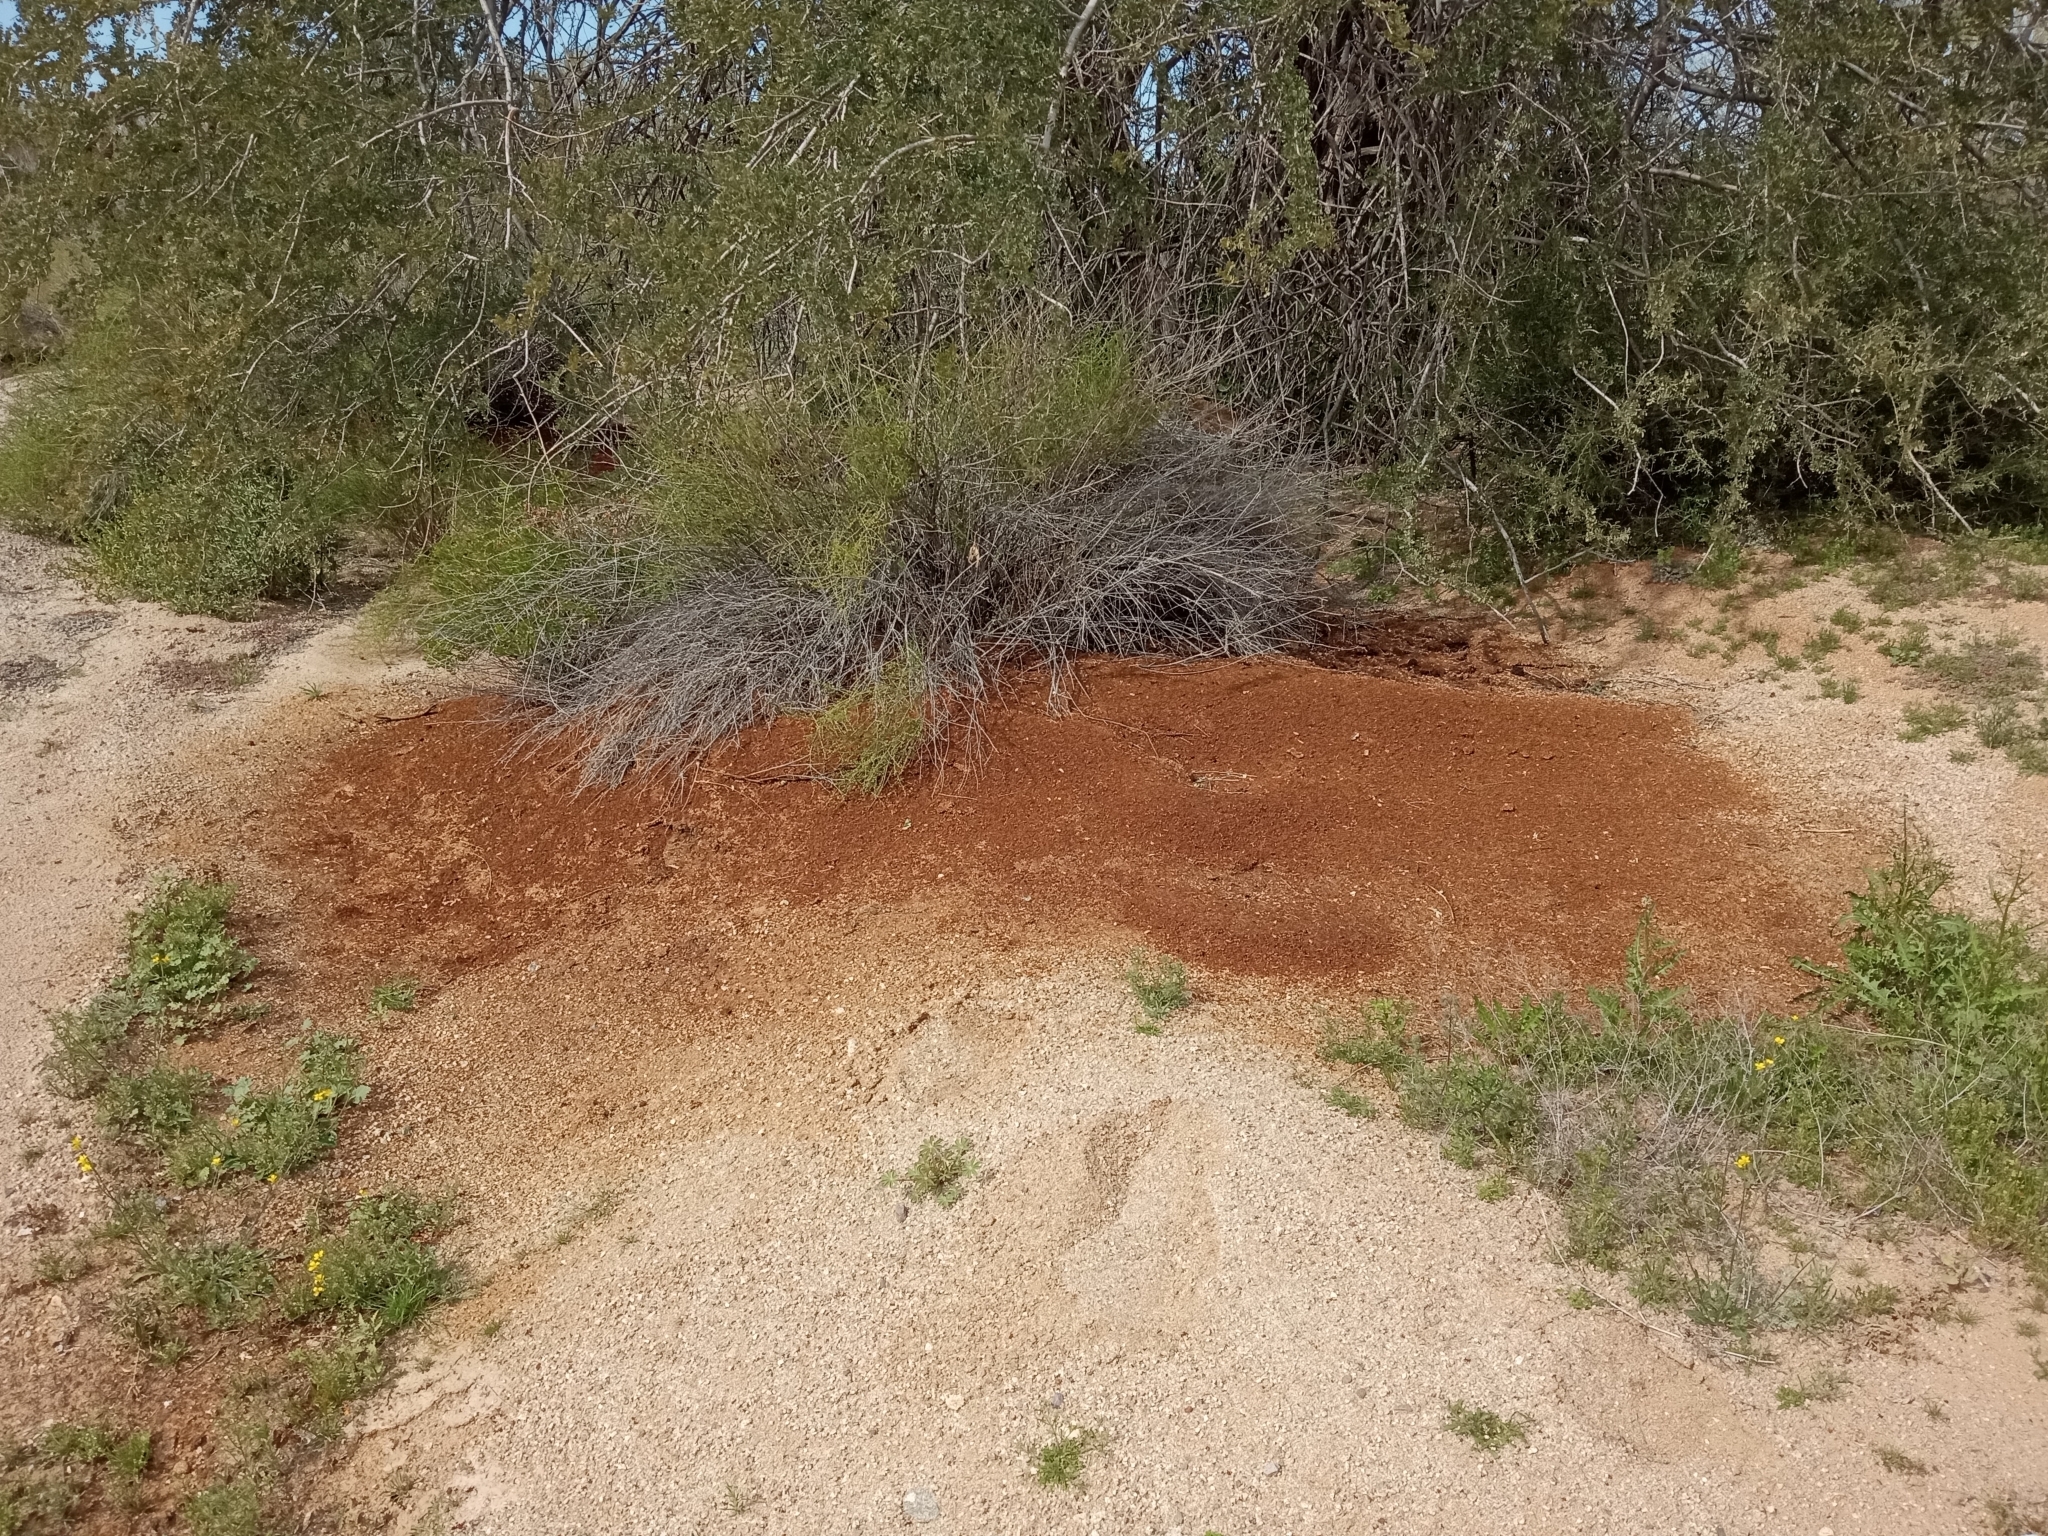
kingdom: Animalia
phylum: Arthropoda
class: Insecta
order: Hymenoptera
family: Formicidae
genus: Atta
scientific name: Atta mexicana
